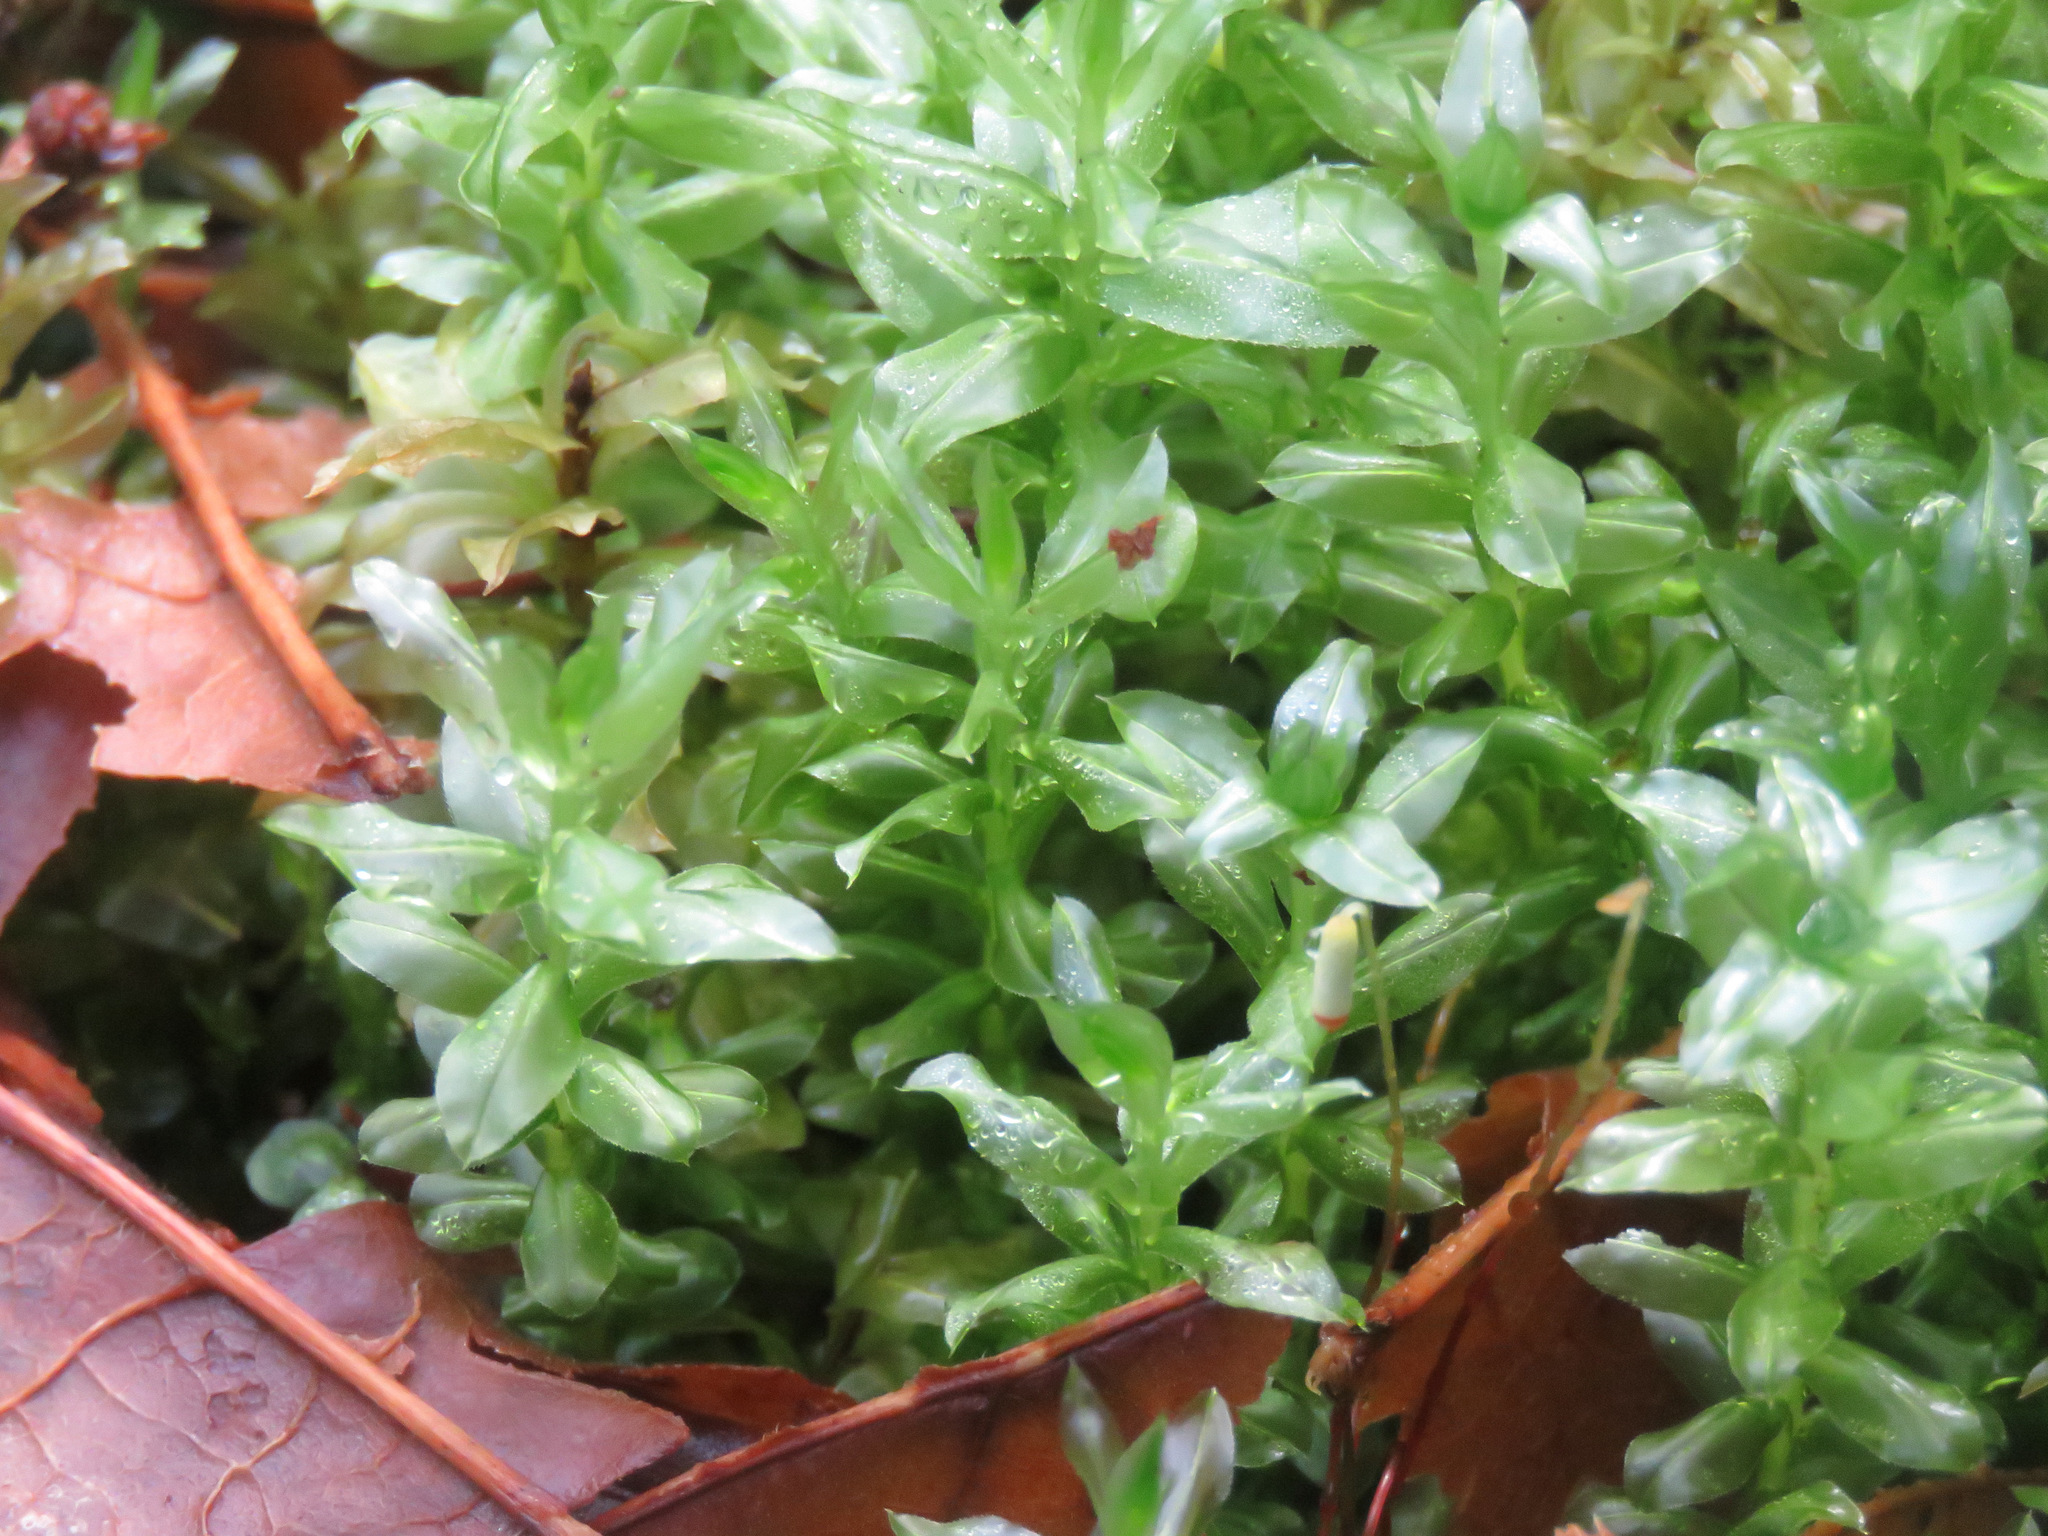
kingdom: Plantae
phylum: Bryophyta
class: Bryopsida
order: Bryales
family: Mniaceae
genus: Plagiomnium
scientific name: Plagiomnium insigne
